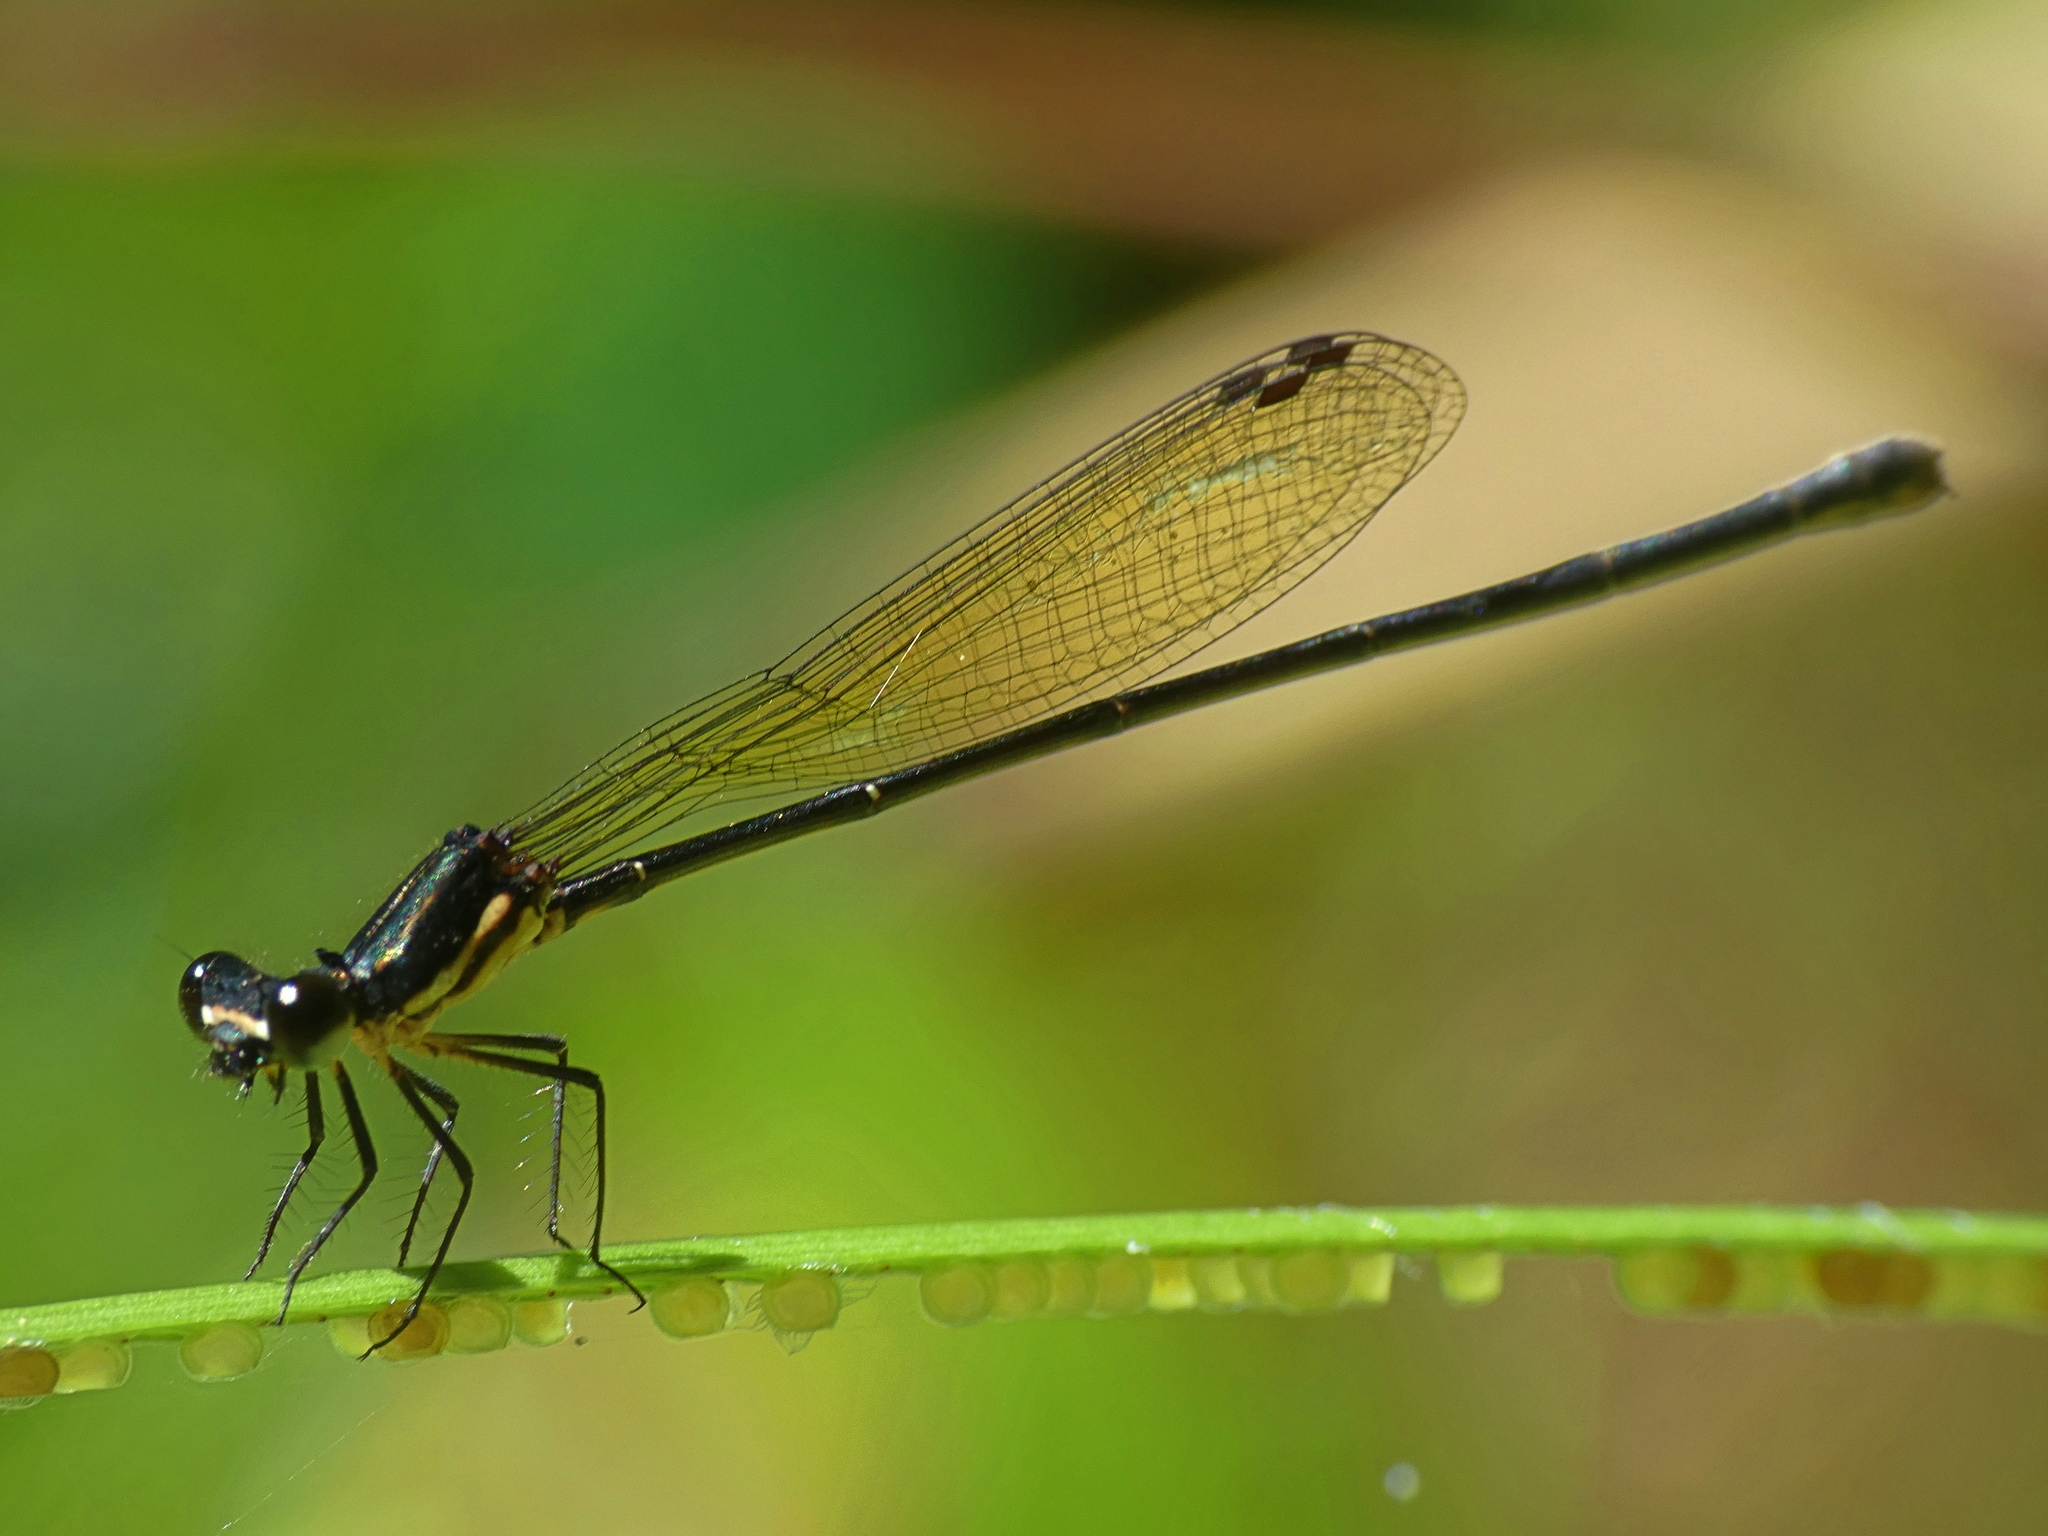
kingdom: Animalia
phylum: Arthropoda
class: Insecta
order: Odonata
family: Platycnemididae
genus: Nososticta
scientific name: Nososticta solitaria
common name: Fivespot threadtail
